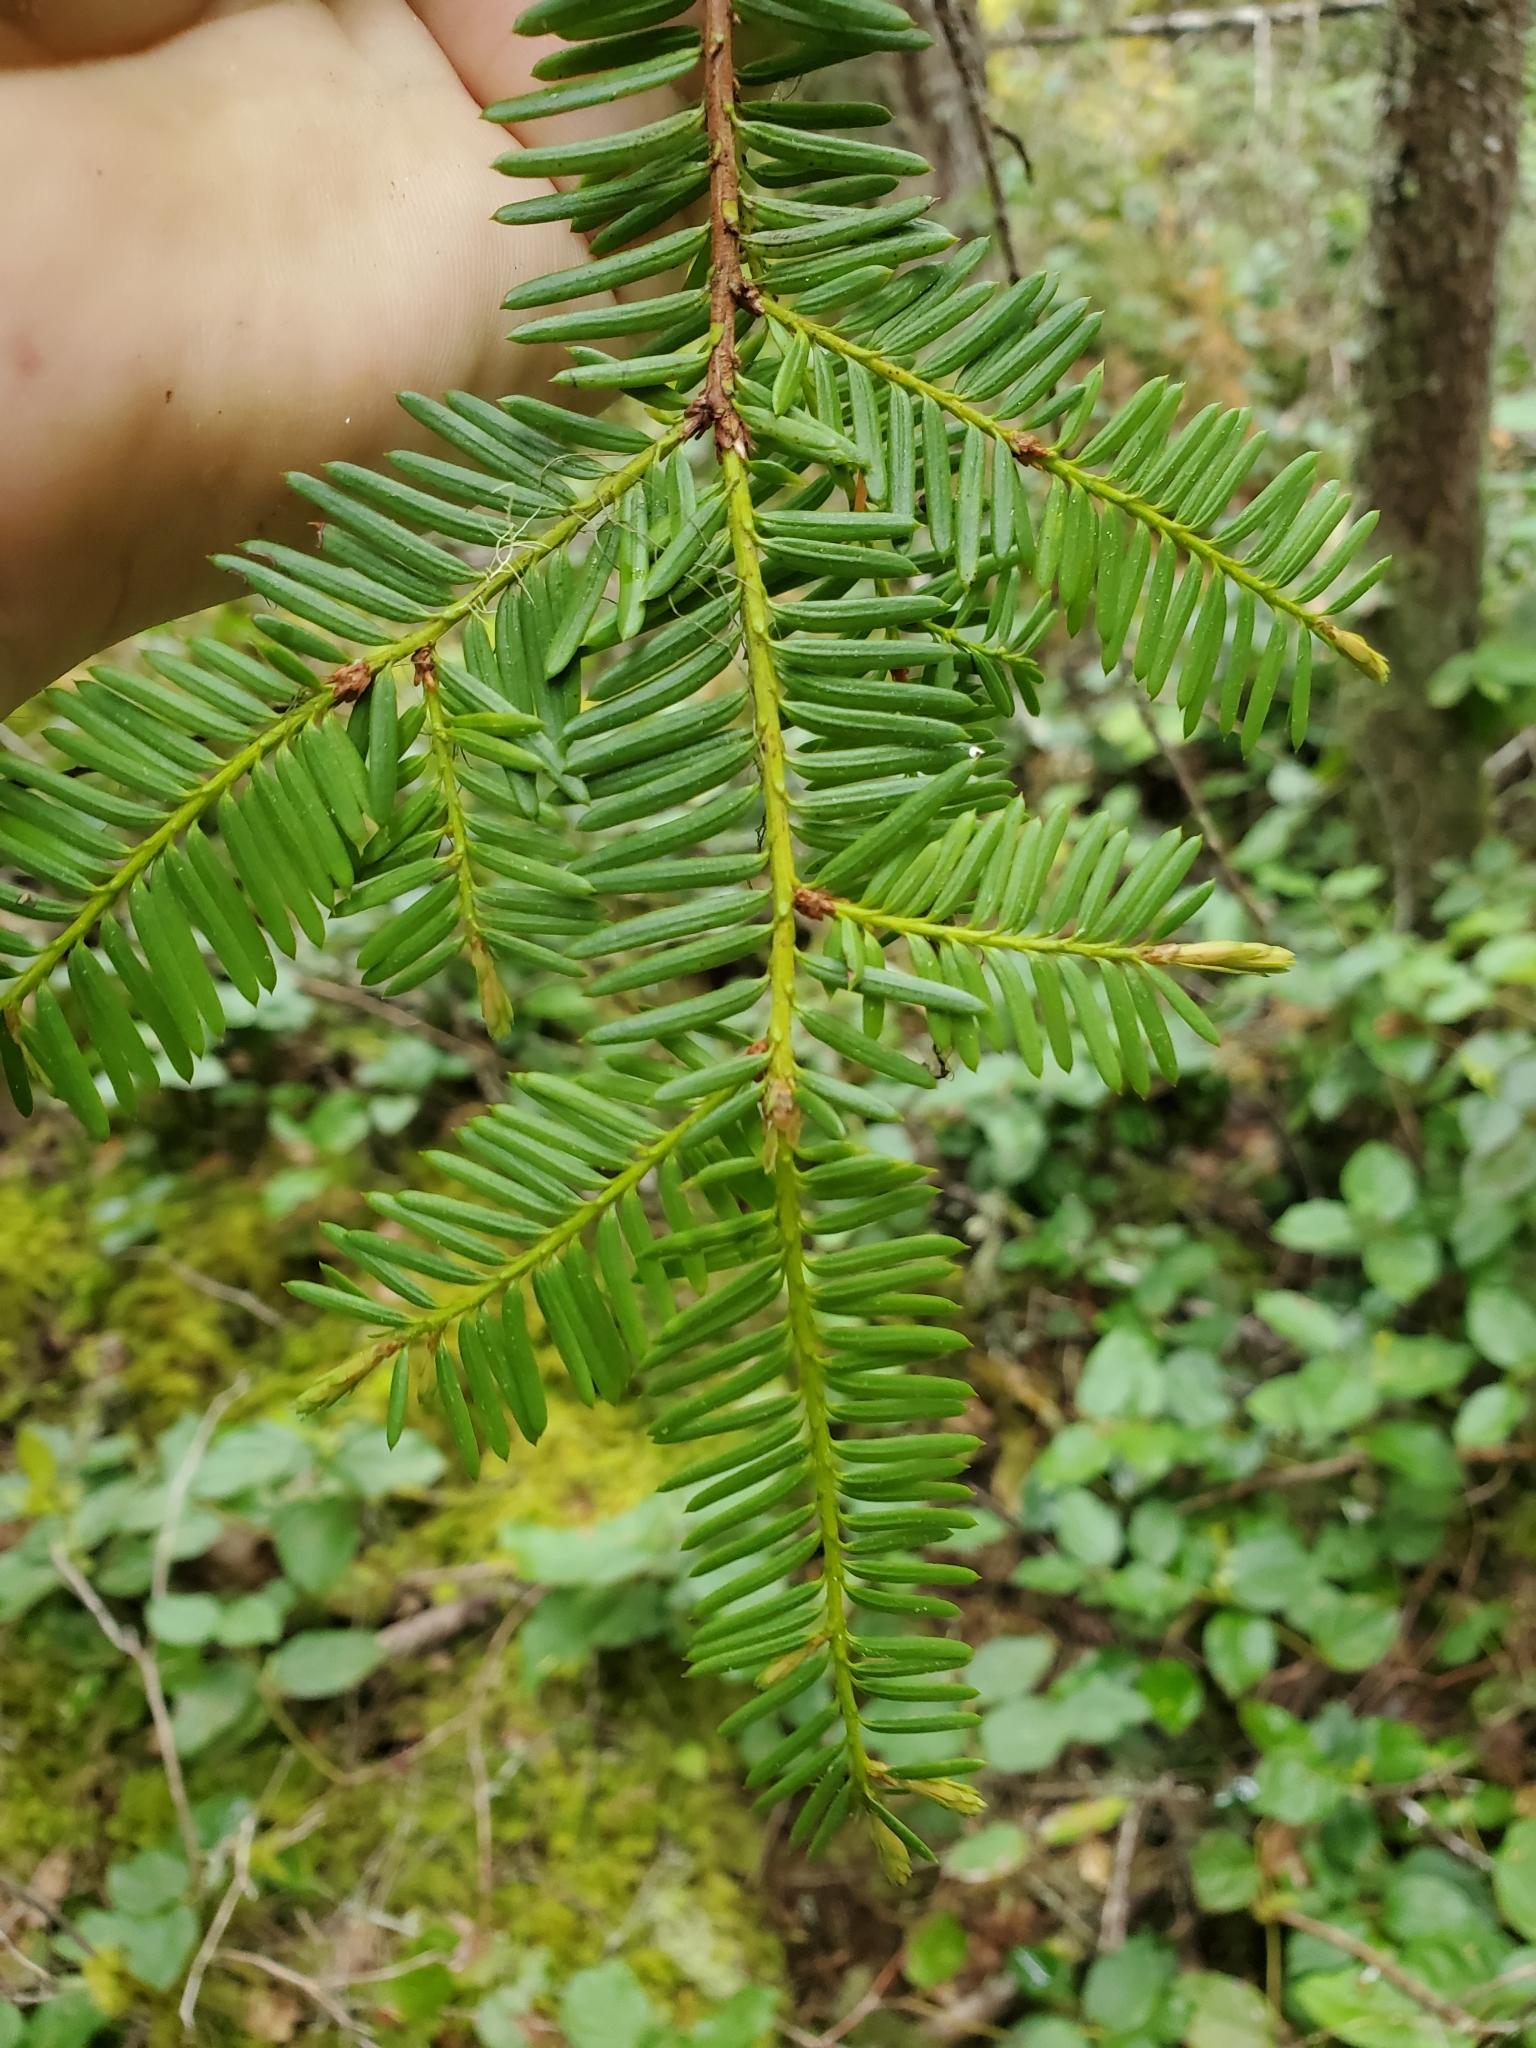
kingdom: Plantae
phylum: Tracheophyta
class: Pinopsida
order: Pinales
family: Taxaceae
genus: Taxus
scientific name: Taxus brevifolia
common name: Pacific yew
